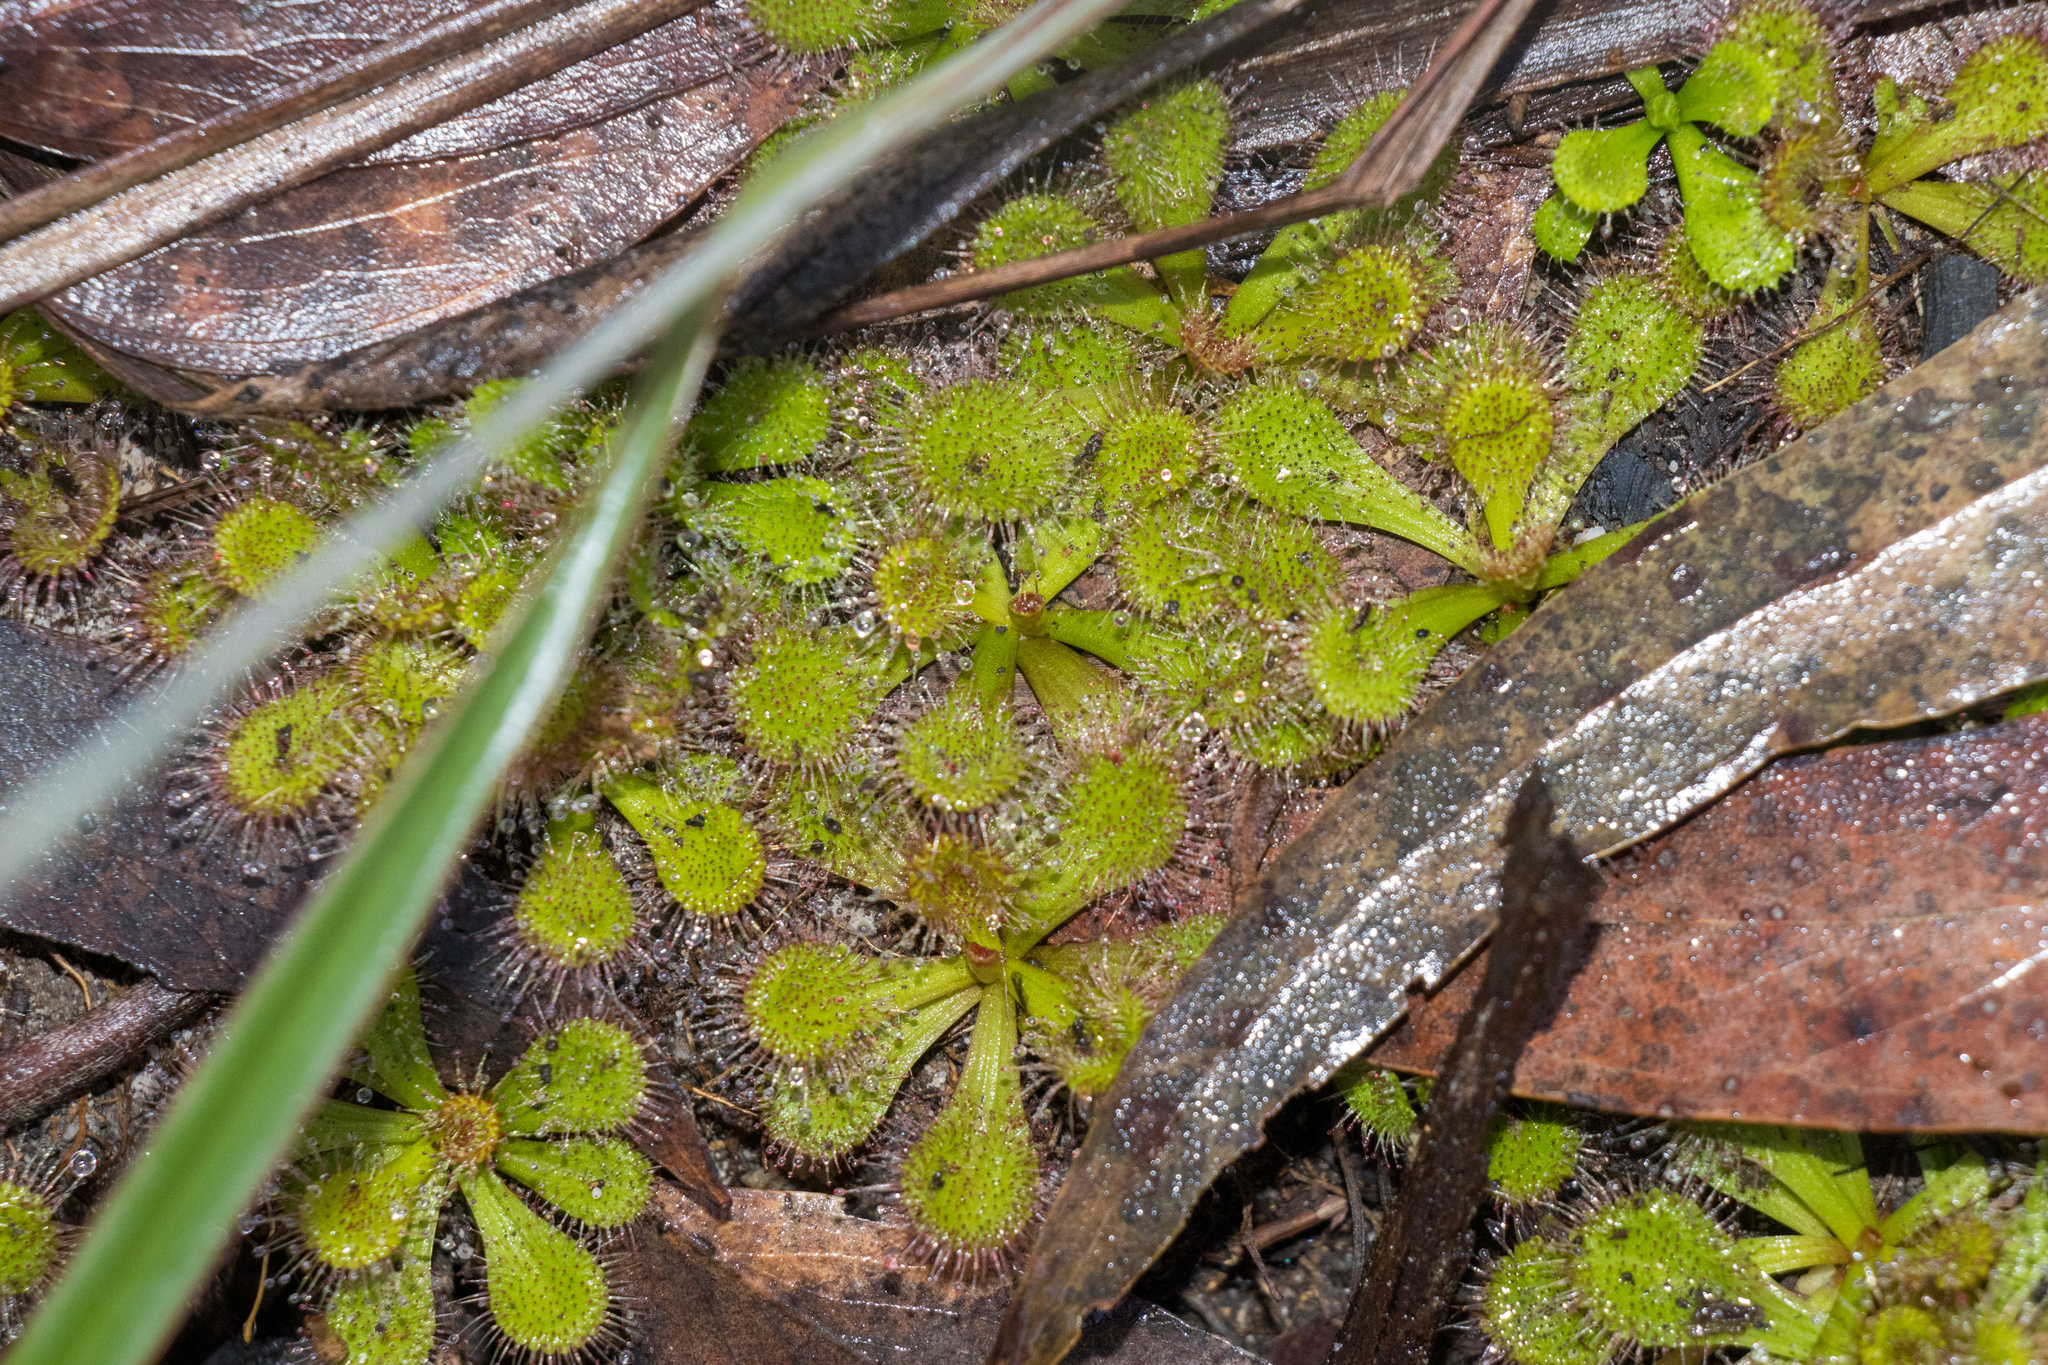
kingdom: Plantae
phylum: Tracheophyta
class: Magnoliopsida
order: Caryophyllales
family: Droseraceae
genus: Drosera
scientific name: Drosera aberrans
